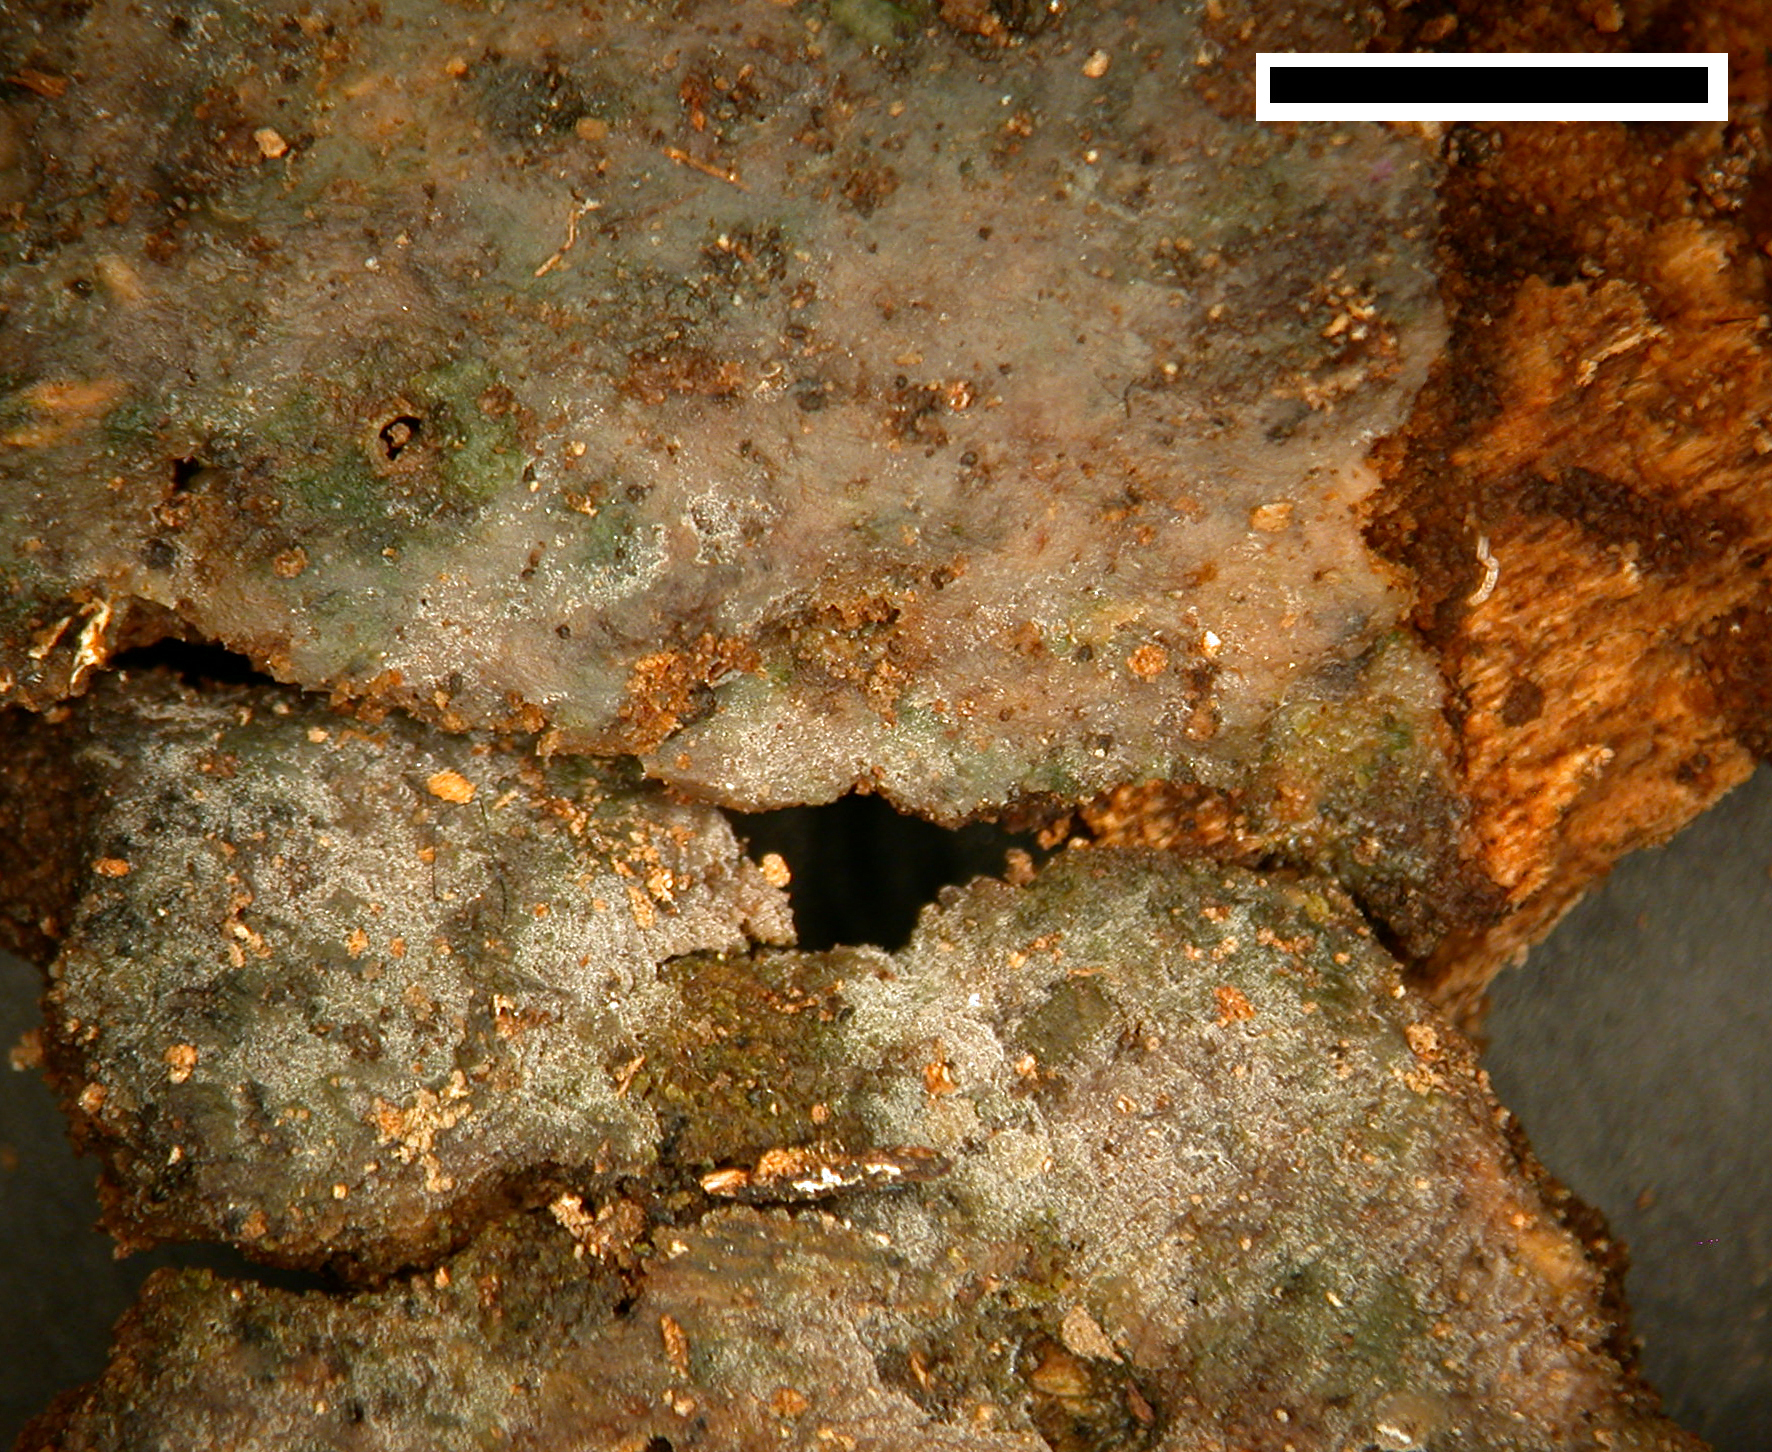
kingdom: Fungi
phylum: Basidiomycota
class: Atractiellomycetes
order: Atractiellales
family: Phleogenaceae
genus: Helicogloea
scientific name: Helicogloea lagerheimii
